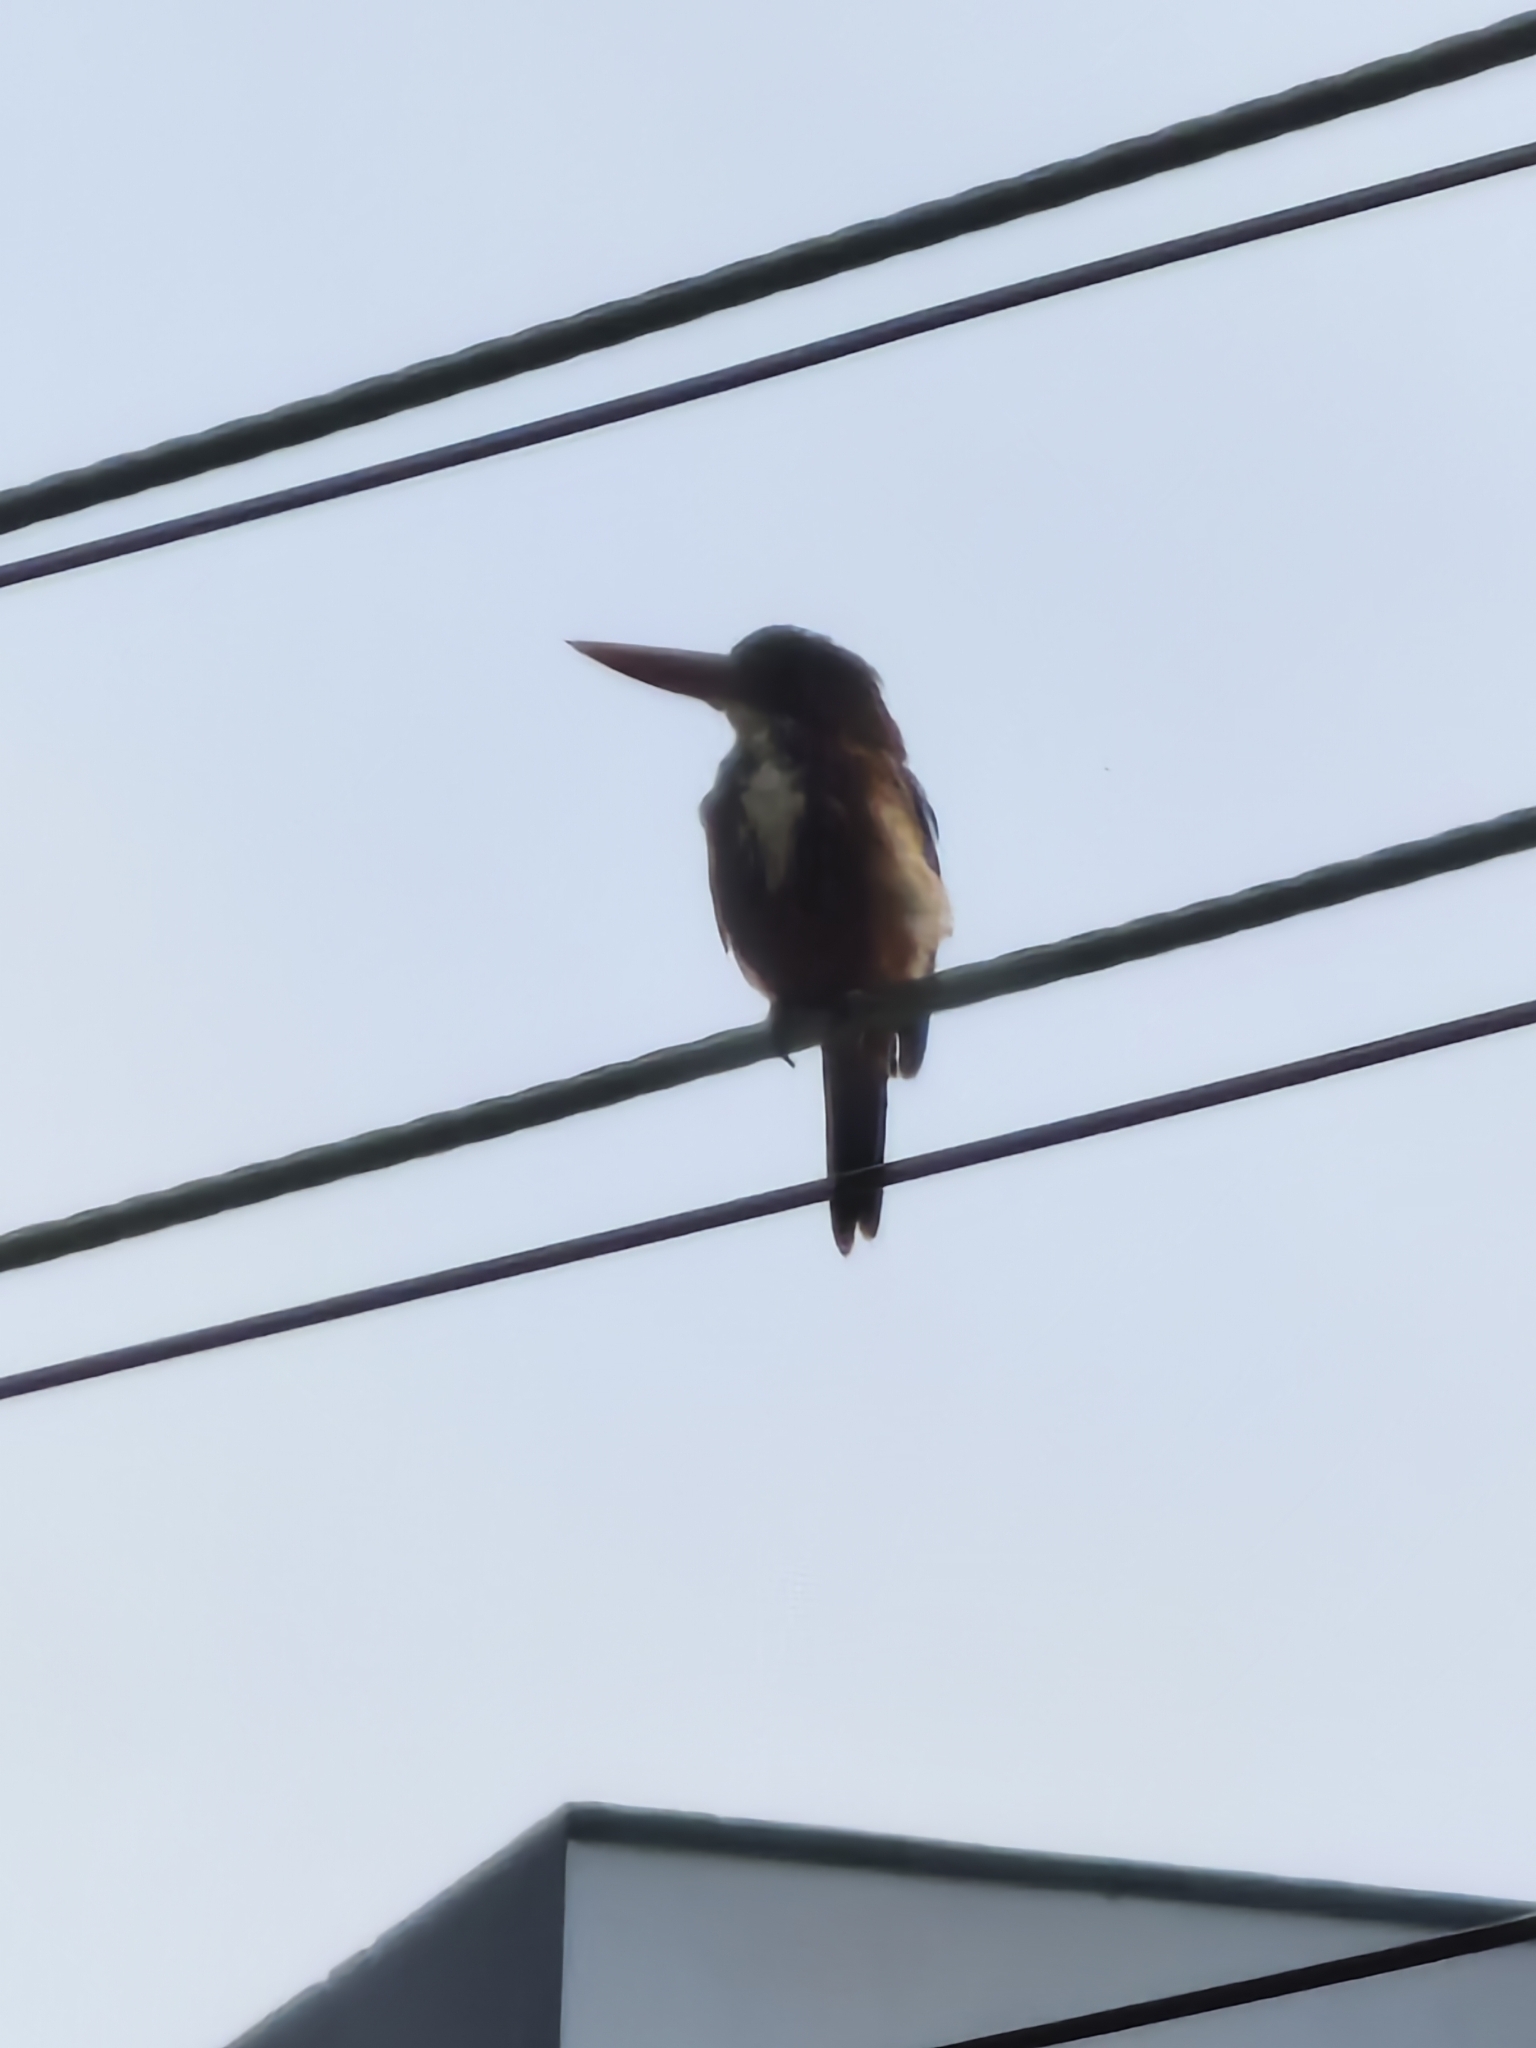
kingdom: Animalia
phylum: Chordata
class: Aves
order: Coraciiformes
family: Alcedinidae
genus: Halcyon
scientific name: Halcyon smyrnensis
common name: White-throated kingfisher
